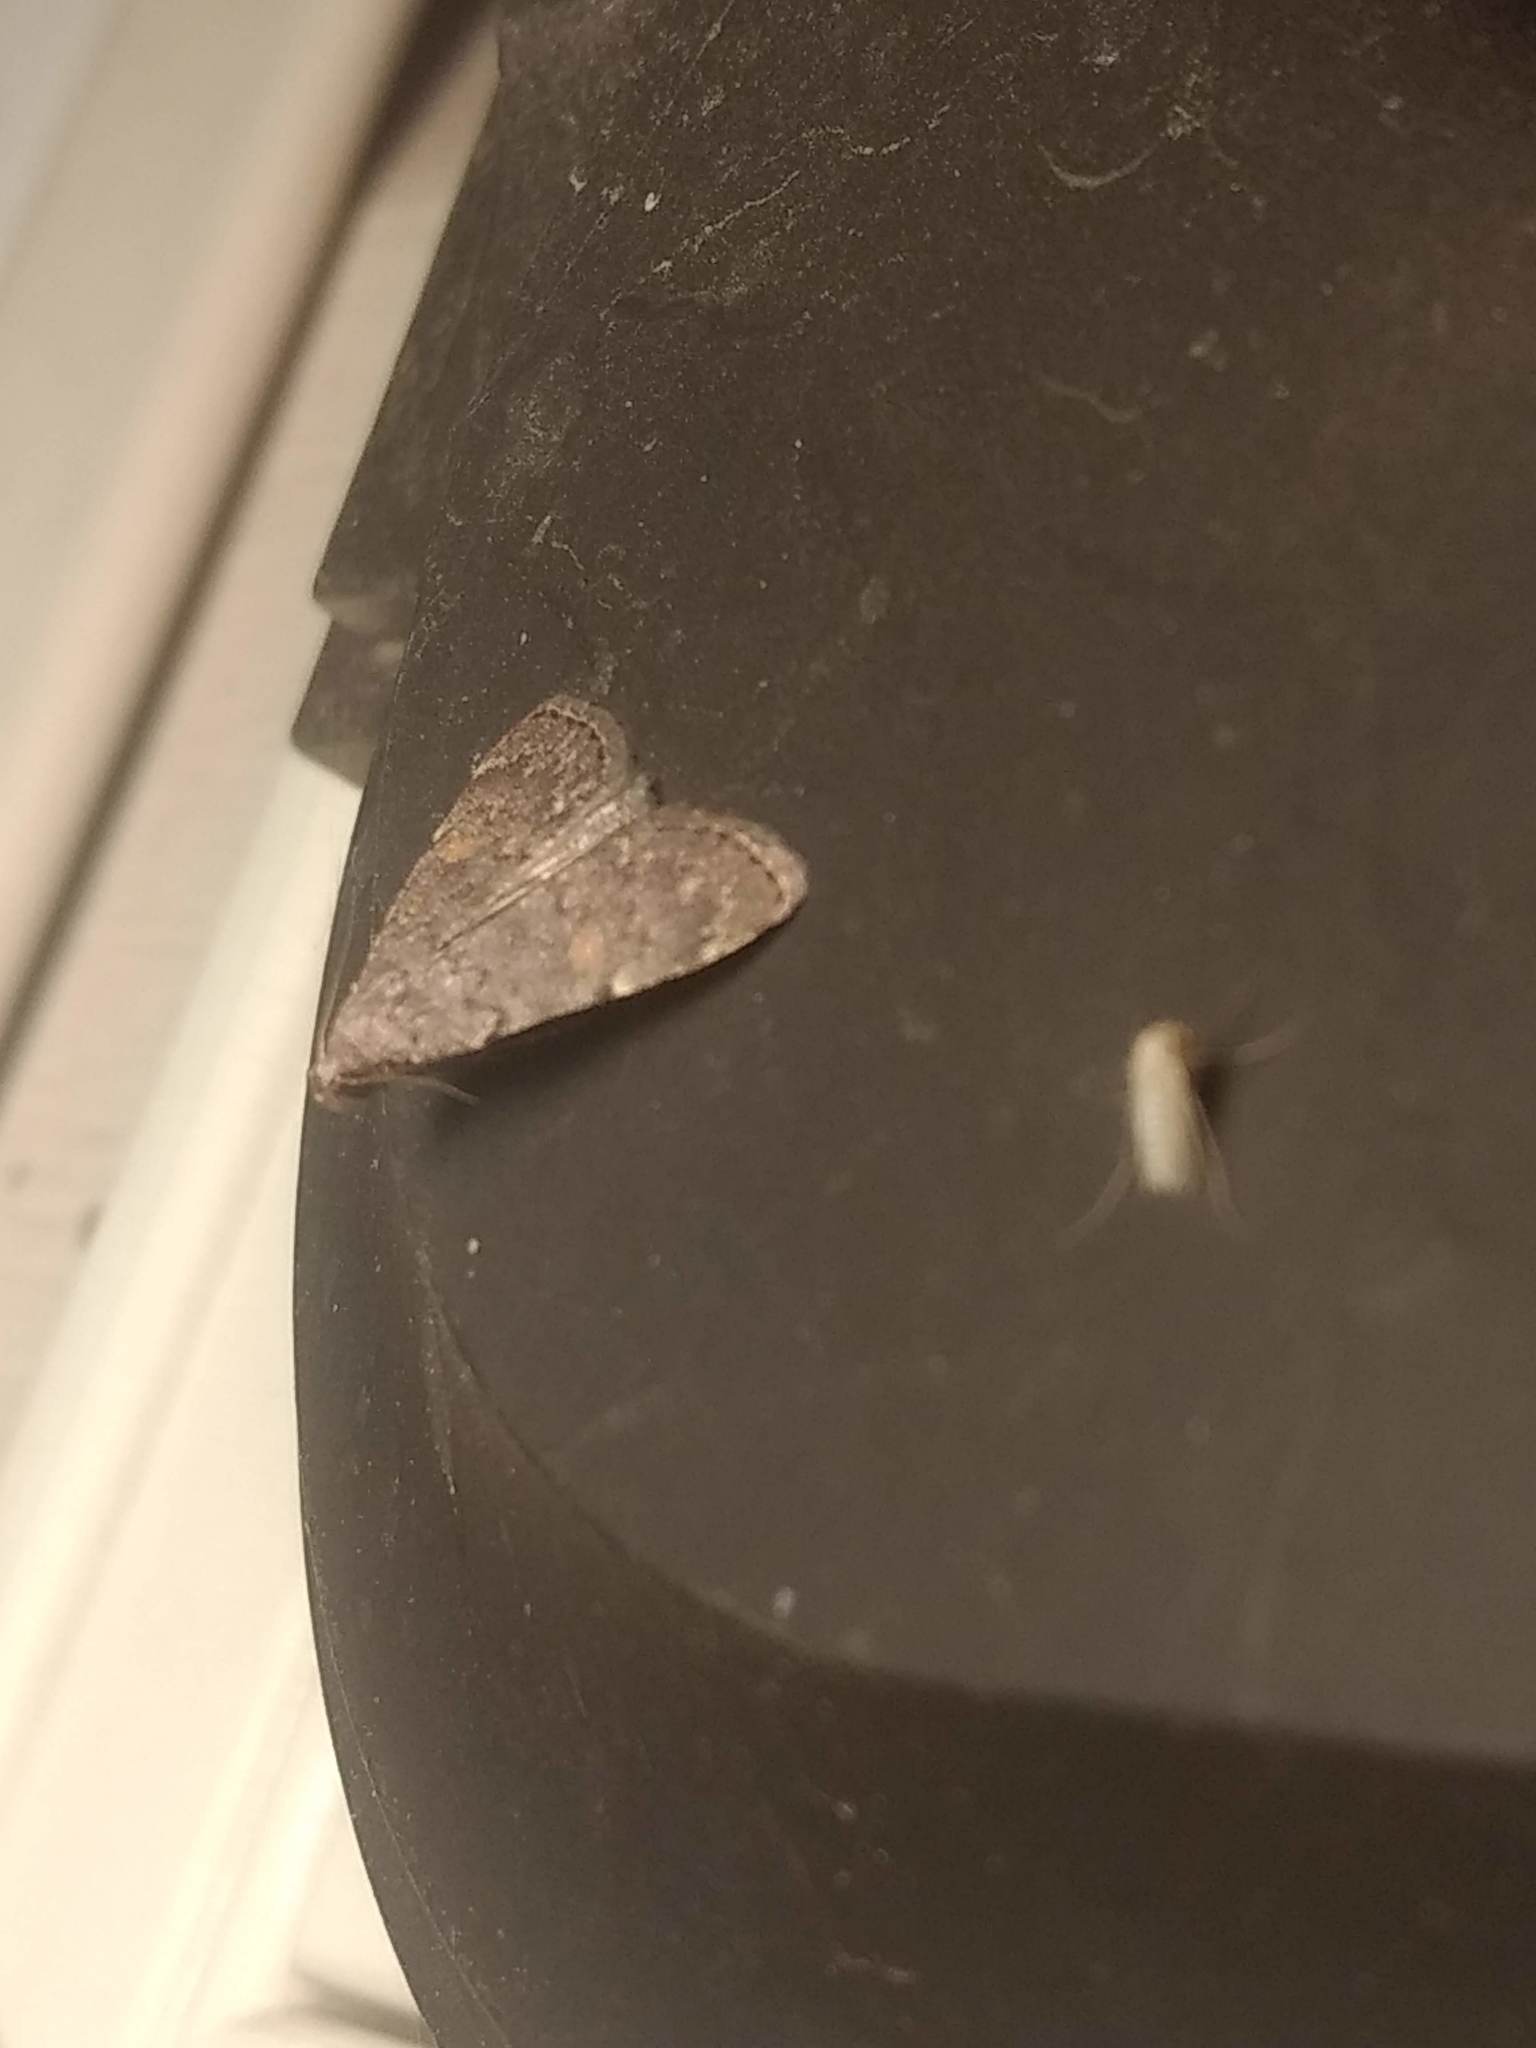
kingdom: Animalia
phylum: Arthropoda
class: Insecta
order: Lepidoptera
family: Erebidae
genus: Idia
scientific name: Idia aemula
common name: Common idia moth
